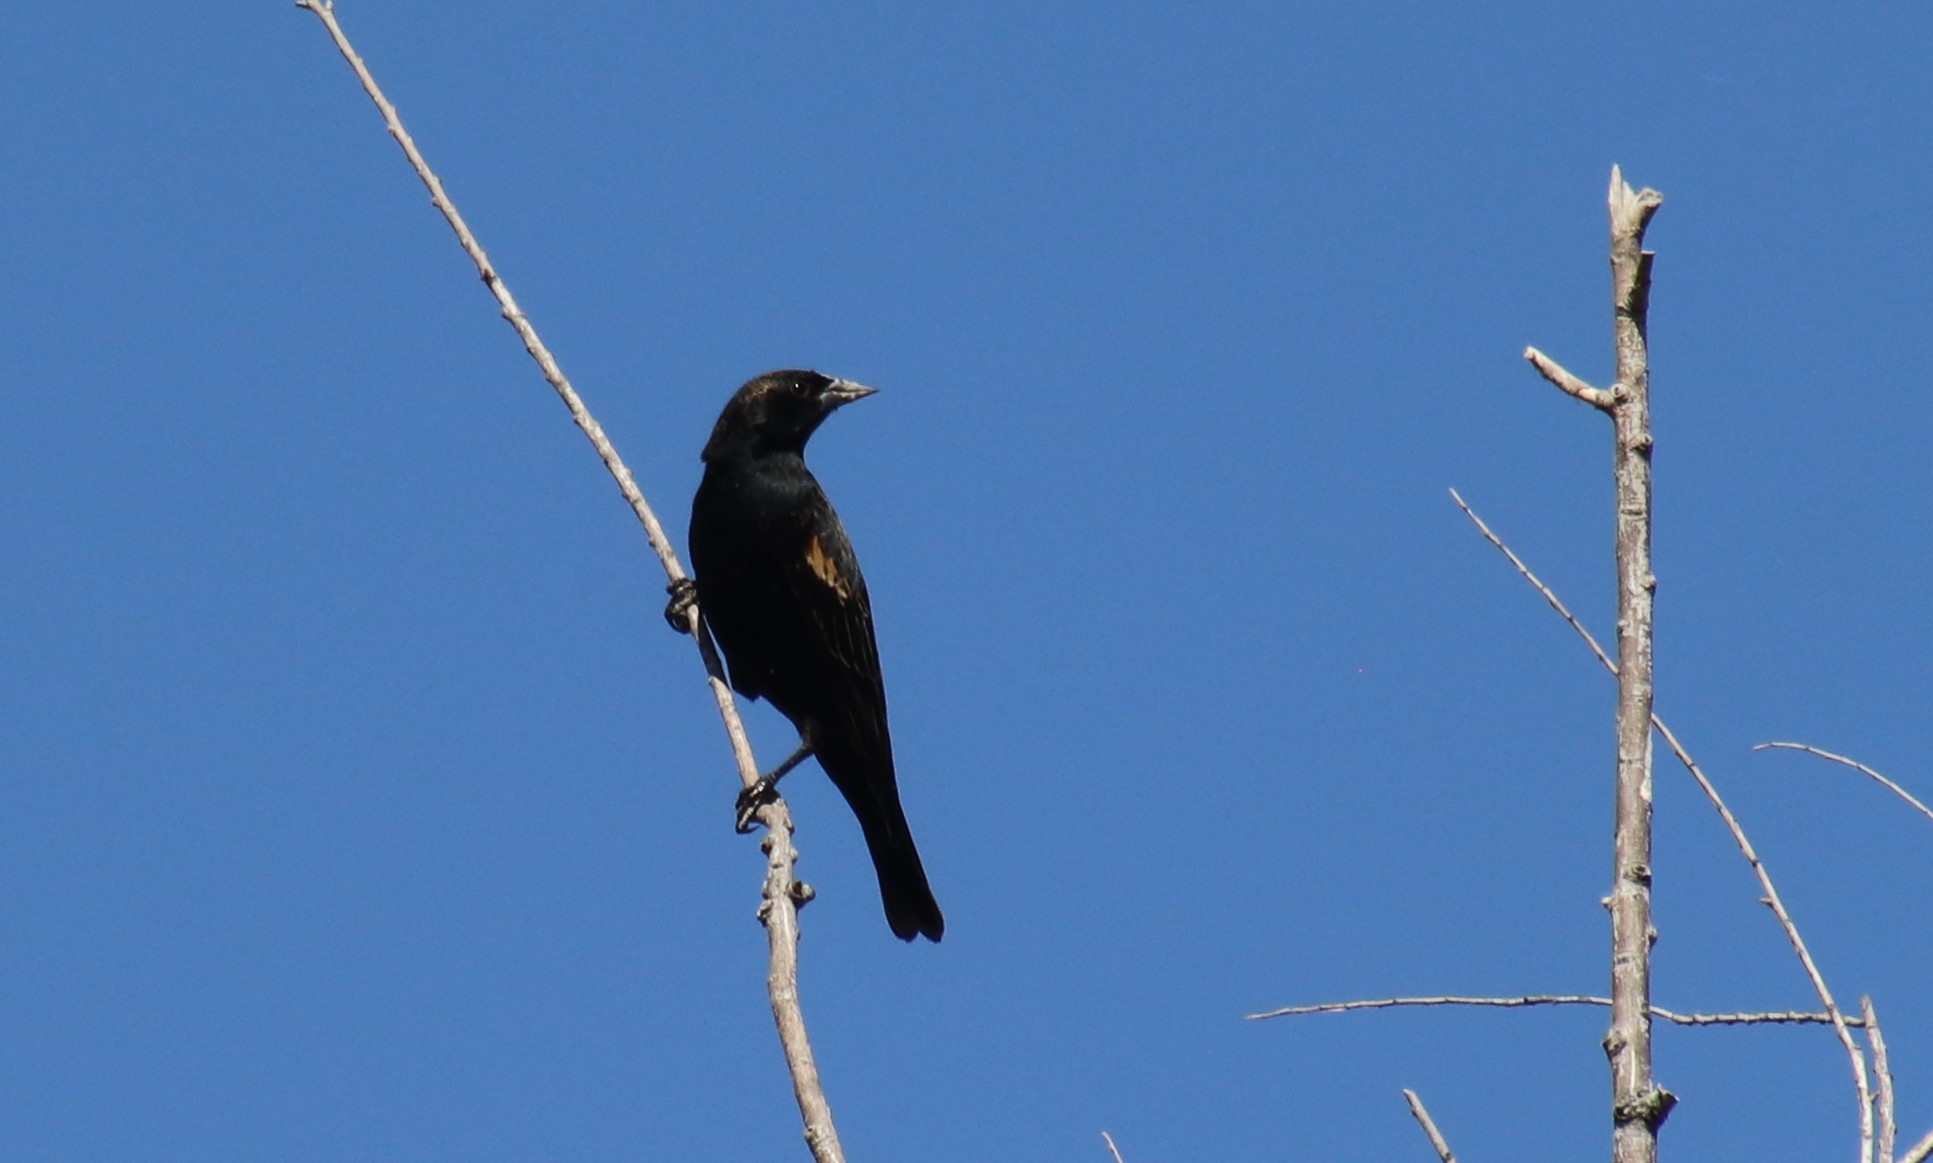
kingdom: Animalia
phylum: Chordata
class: Aves
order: Passeriformes
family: Icteridae
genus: Agelaius
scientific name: Agelaius phoeniceus
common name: Red-winged blackbird
